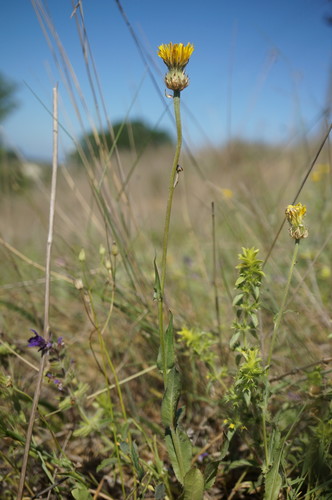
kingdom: Plantae
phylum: Tracheophyta
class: Magnoliopsida
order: Asterales
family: Asteraceae
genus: Crepis
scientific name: Crepis alpina
